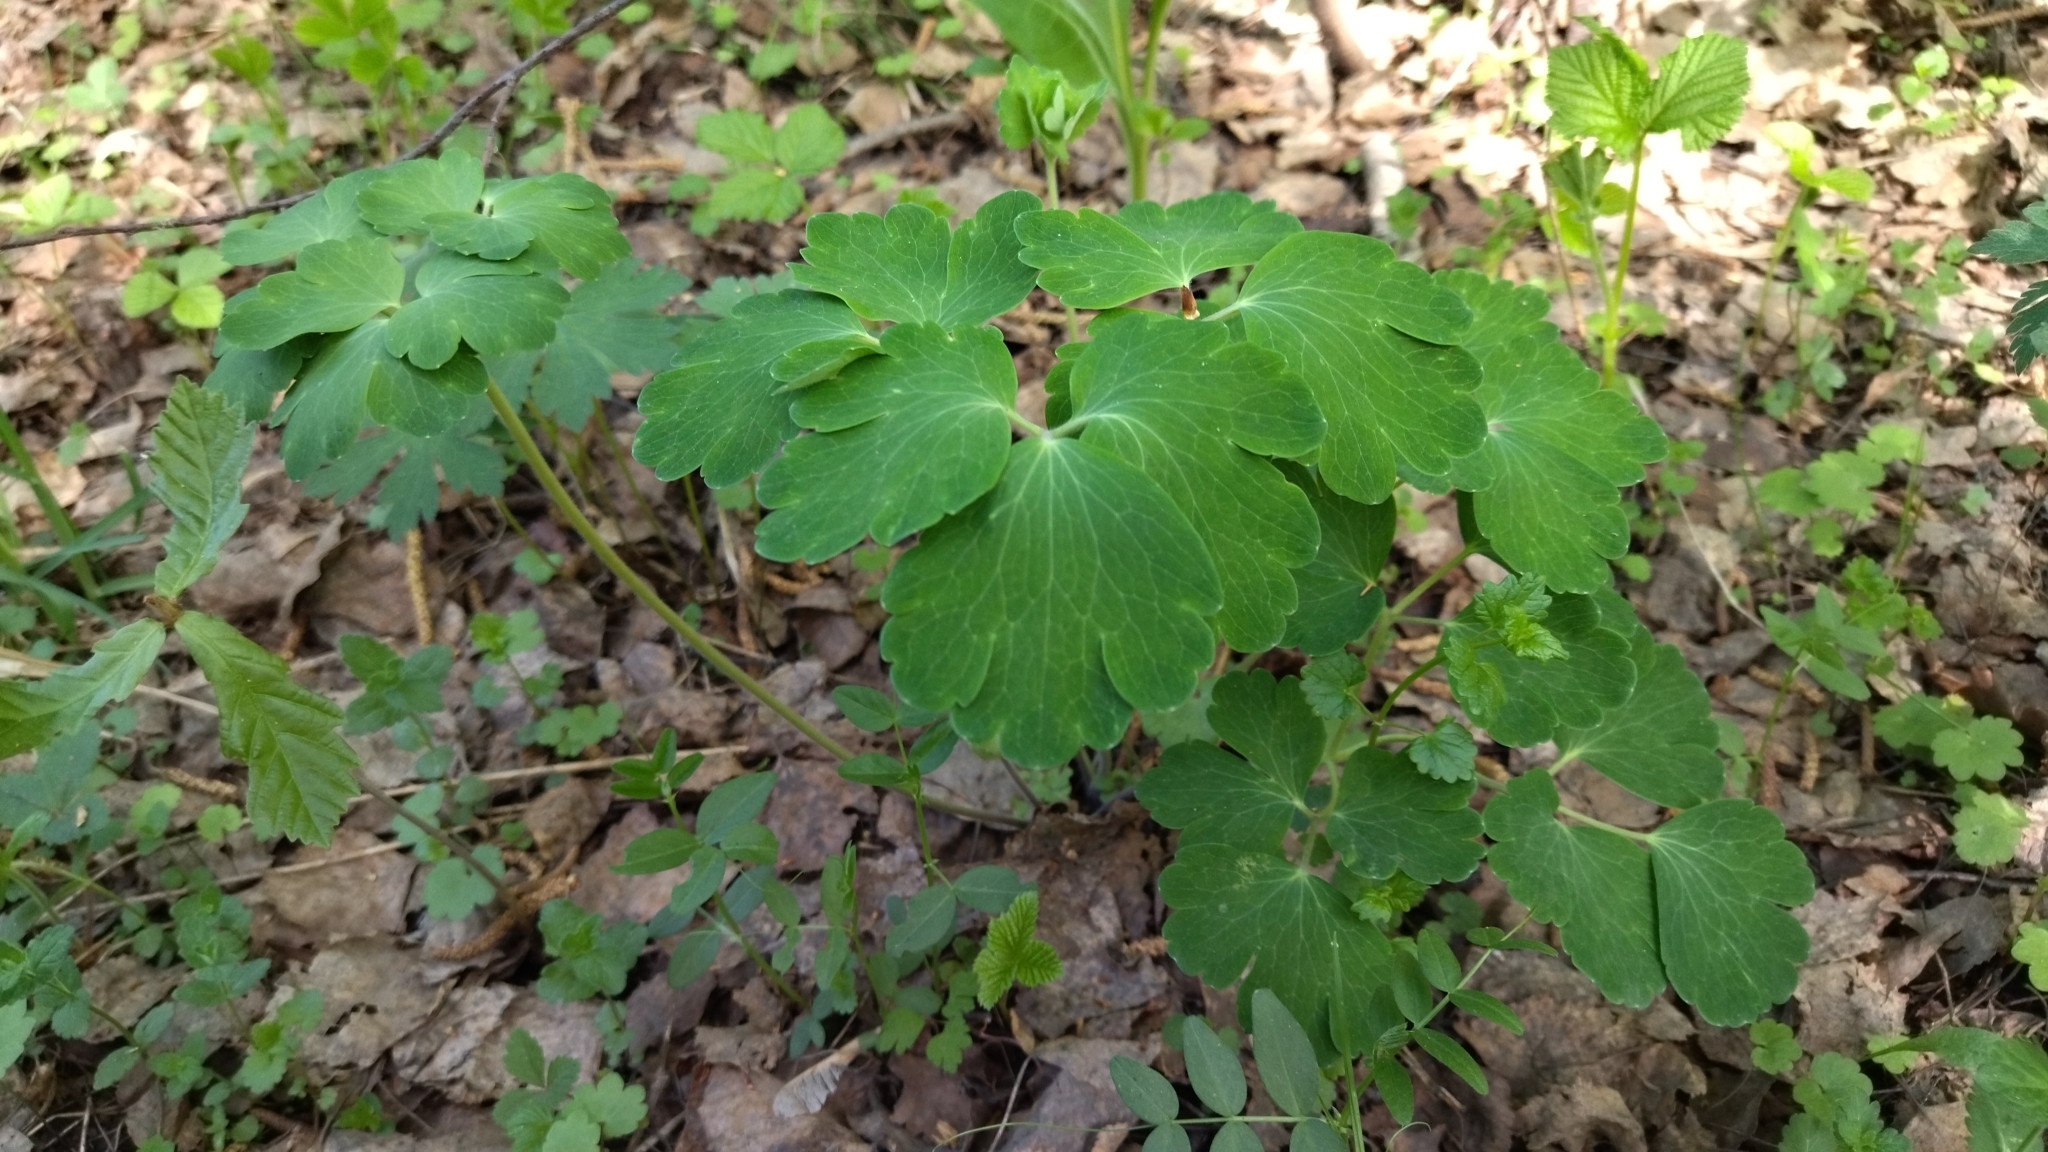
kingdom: Plantae
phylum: Tracheophyta
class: Magnoliopsida
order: Ranunculales
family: Ranunculaceae
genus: Aquilegia
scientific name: Aquilegia vulgaris
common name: Columbine
